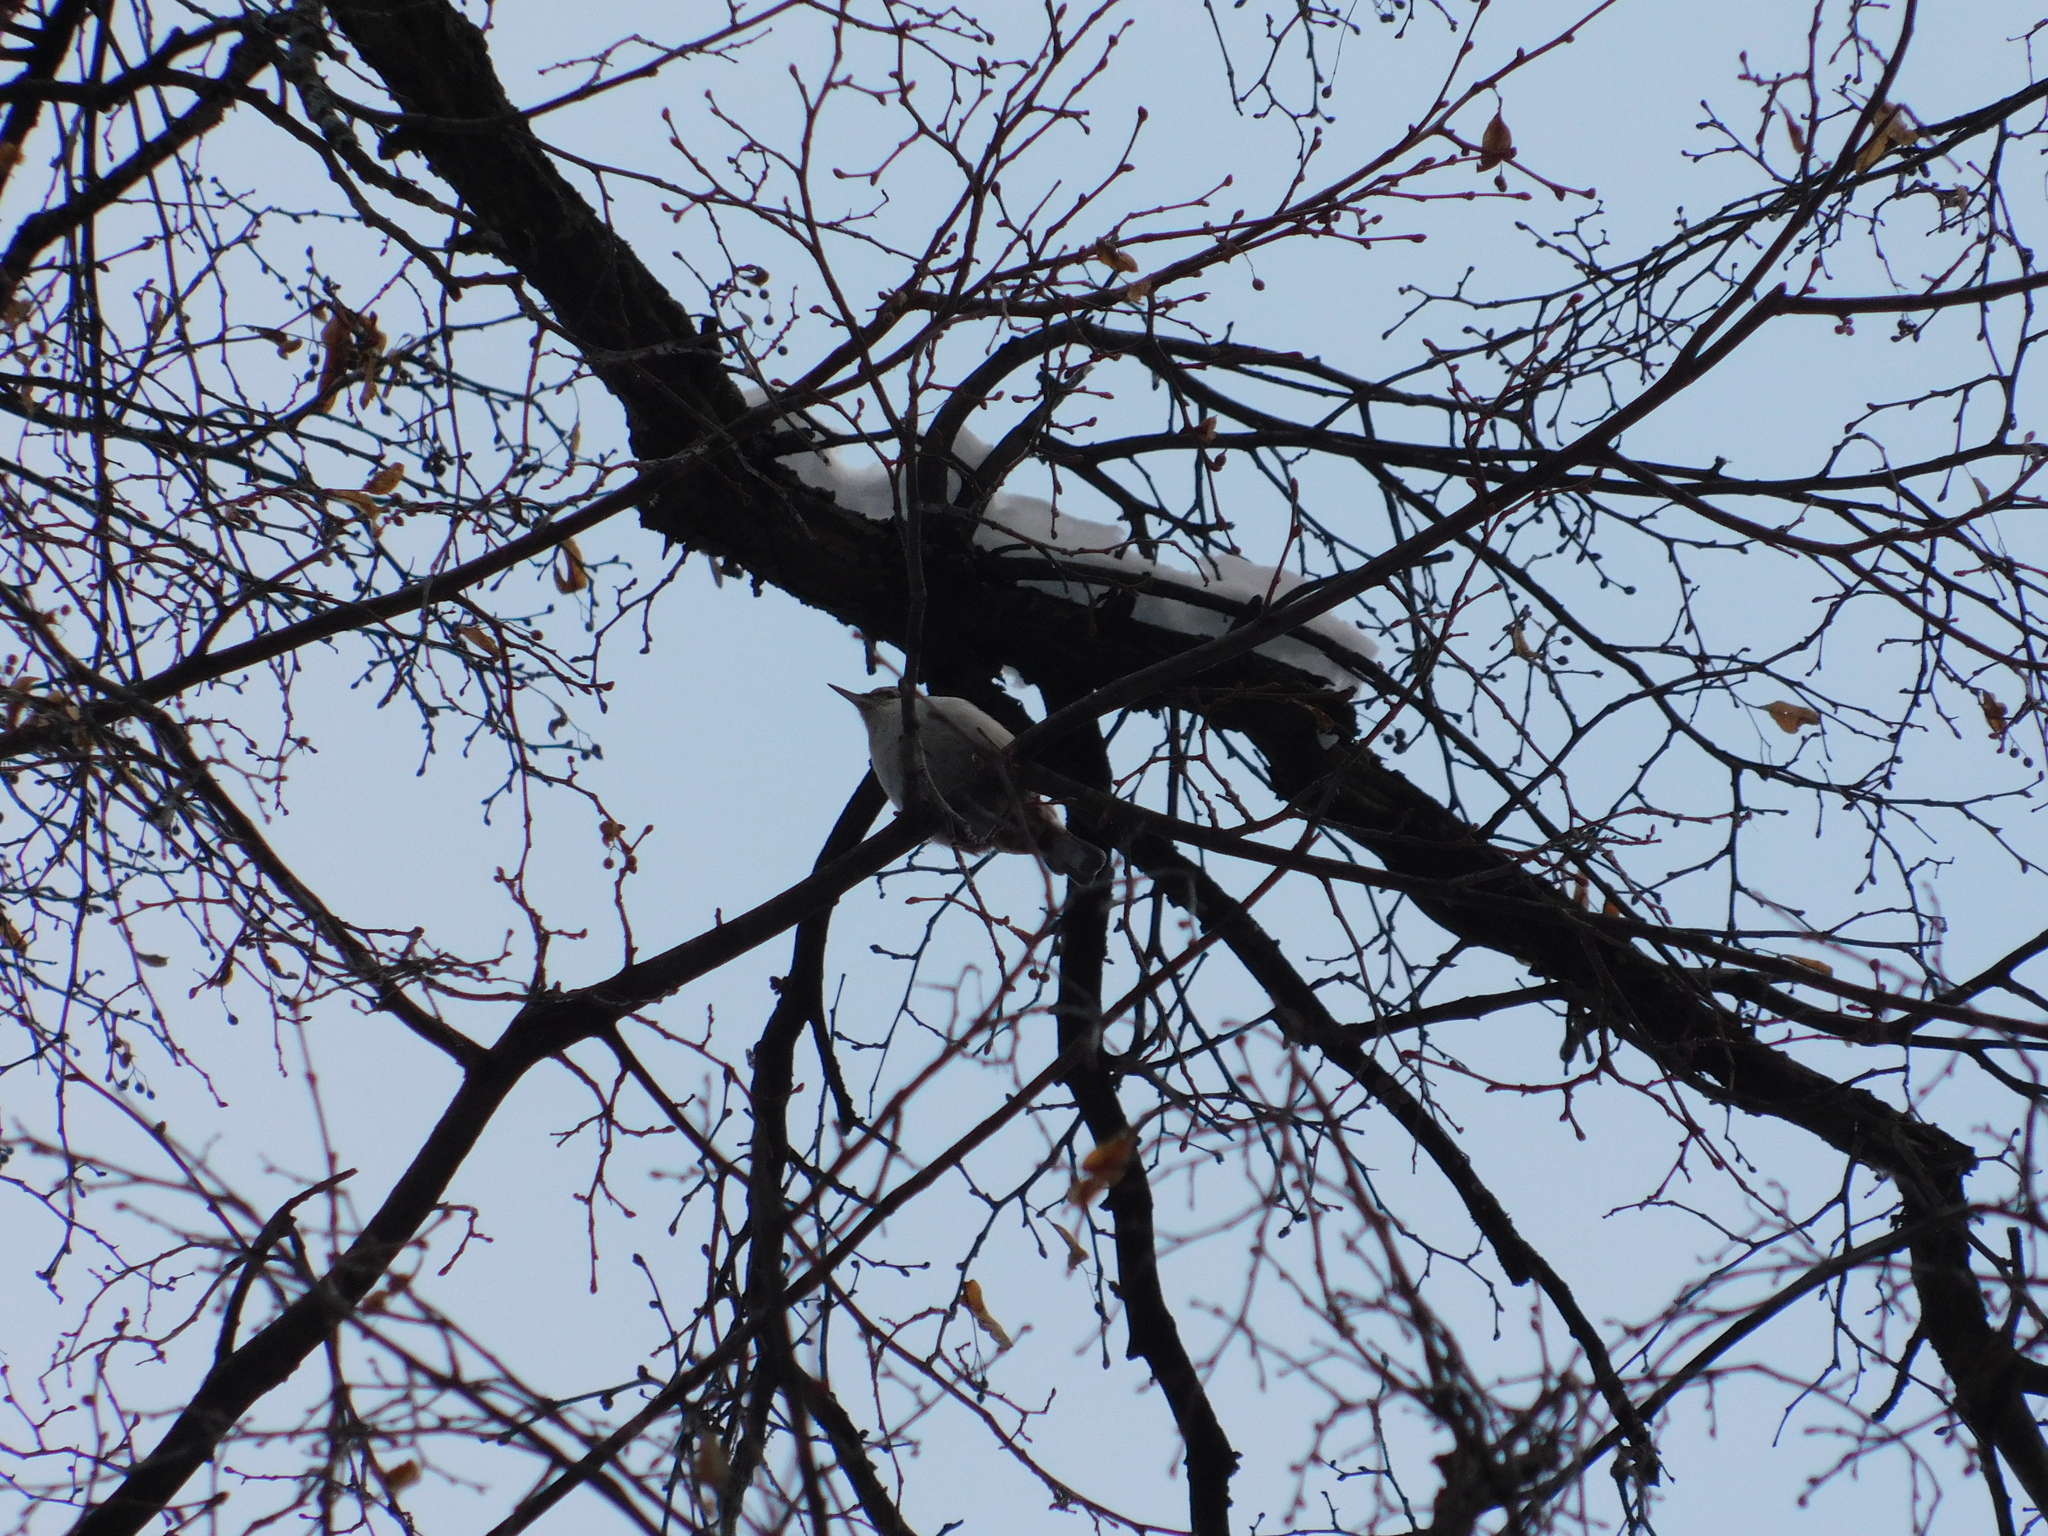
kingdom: Animalia
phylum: Chordata
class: Aves
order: Passeriformes
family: Sittidae
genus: Sitta
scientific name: Sitta europaea
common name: Eurasian nuthatch
